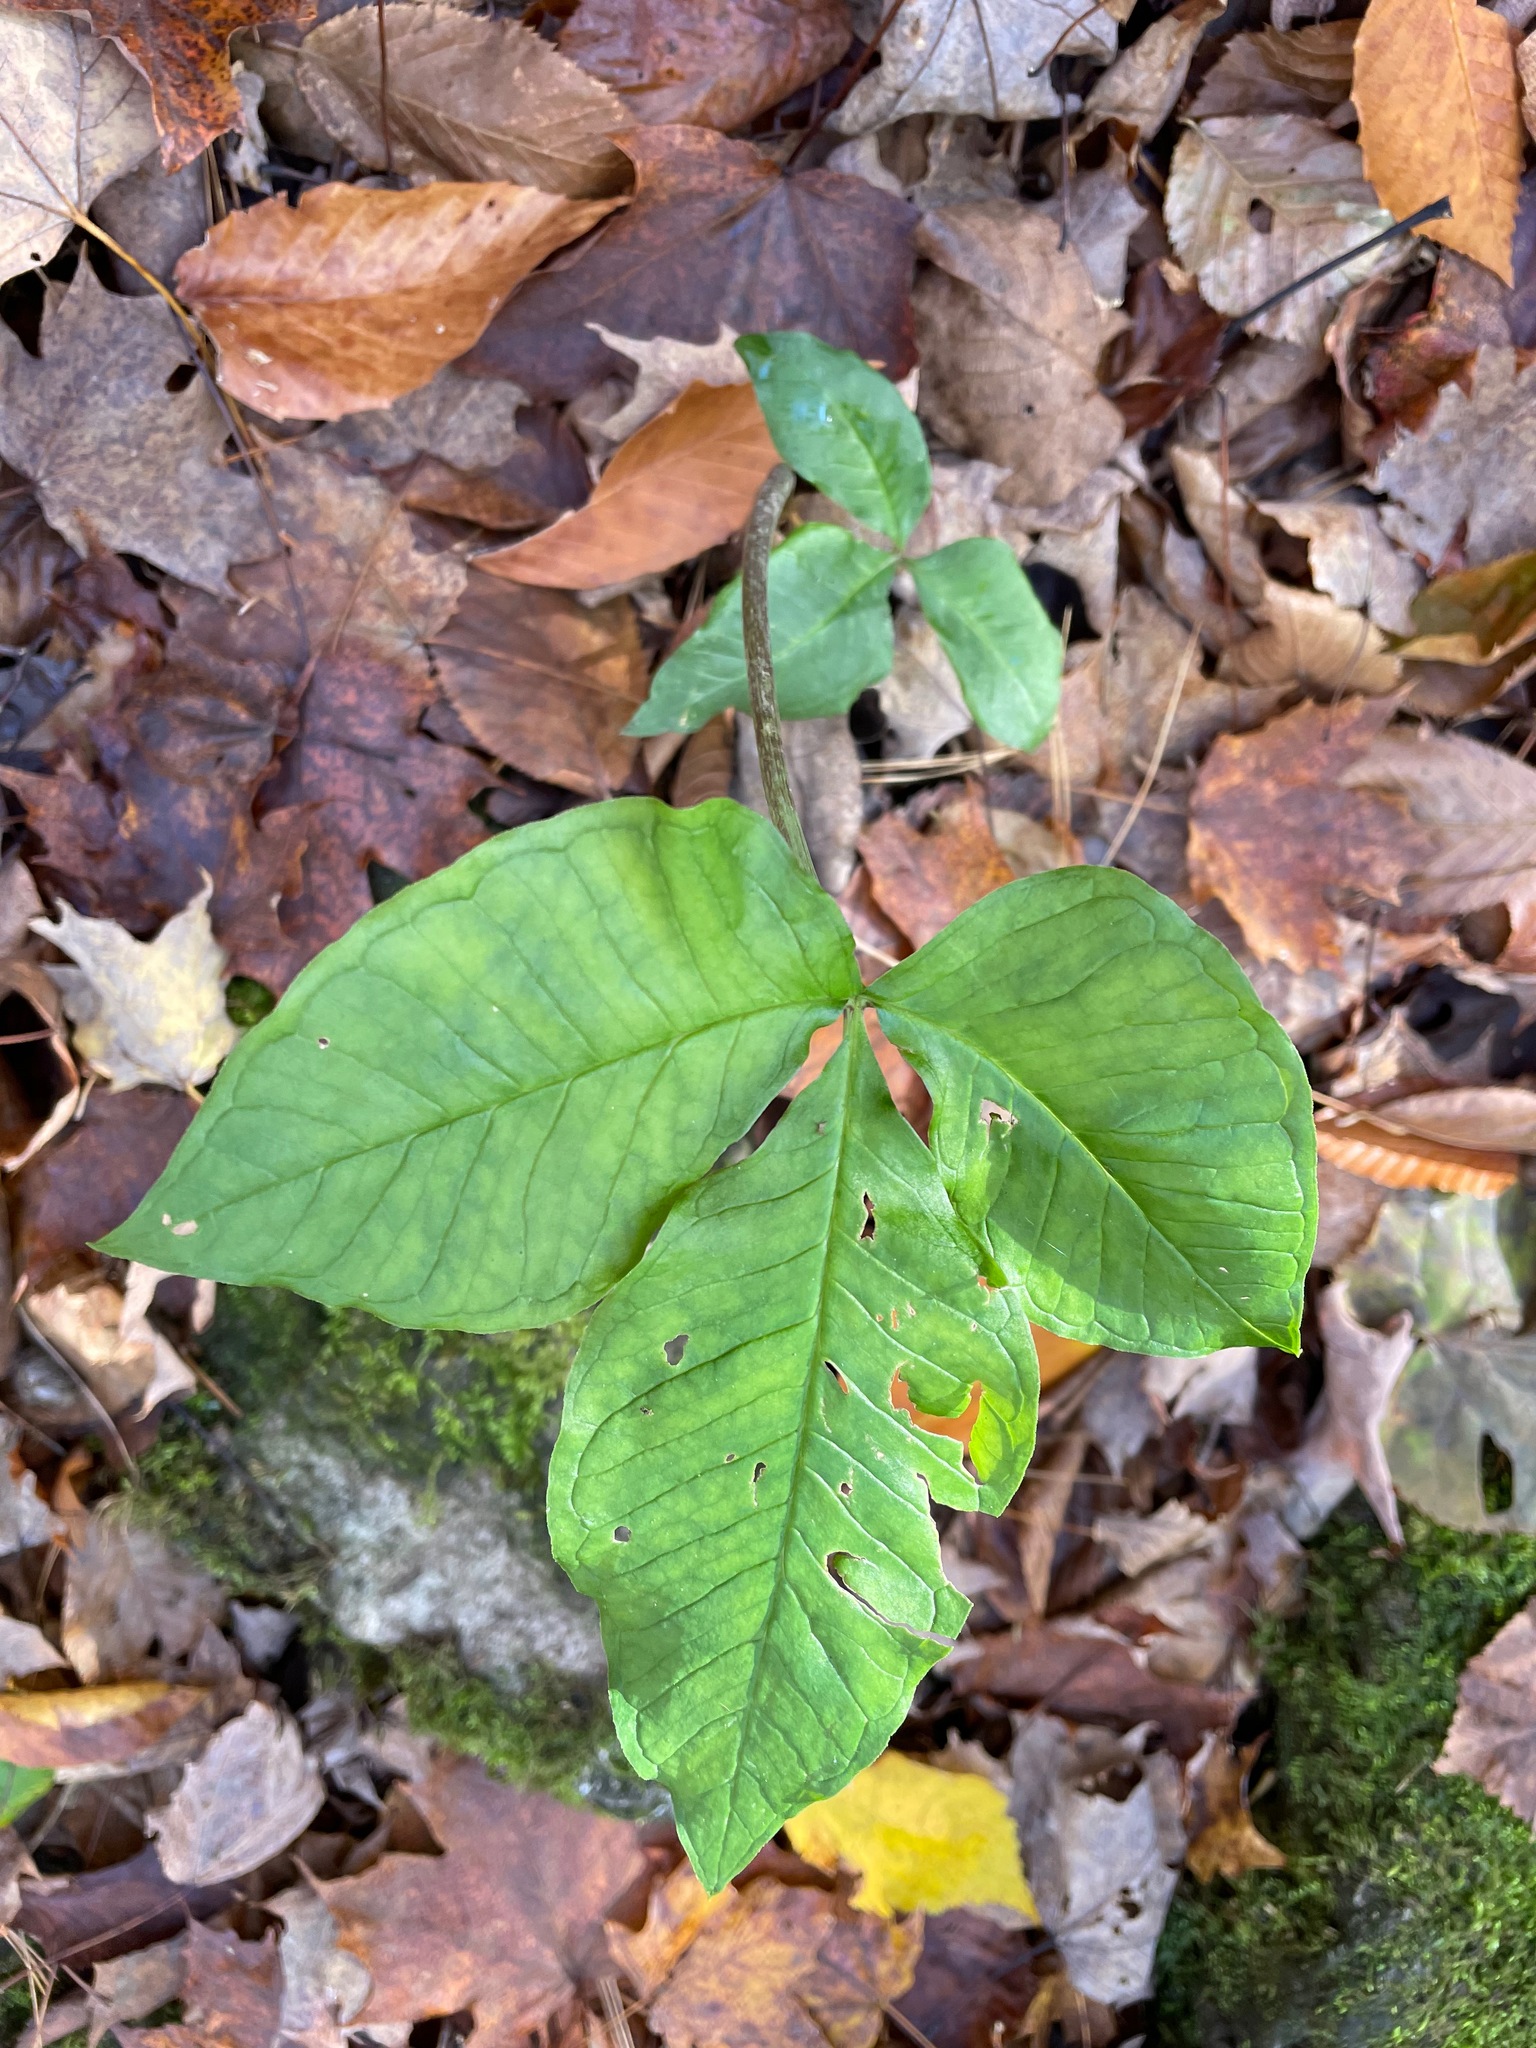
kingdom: Plantae
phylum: Tracheophyta
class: Liliopsida
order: Alismatales
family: Araceae
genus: Arisaema
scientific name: Arisaema triphyllum
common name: Jack-in-the-pulpit
